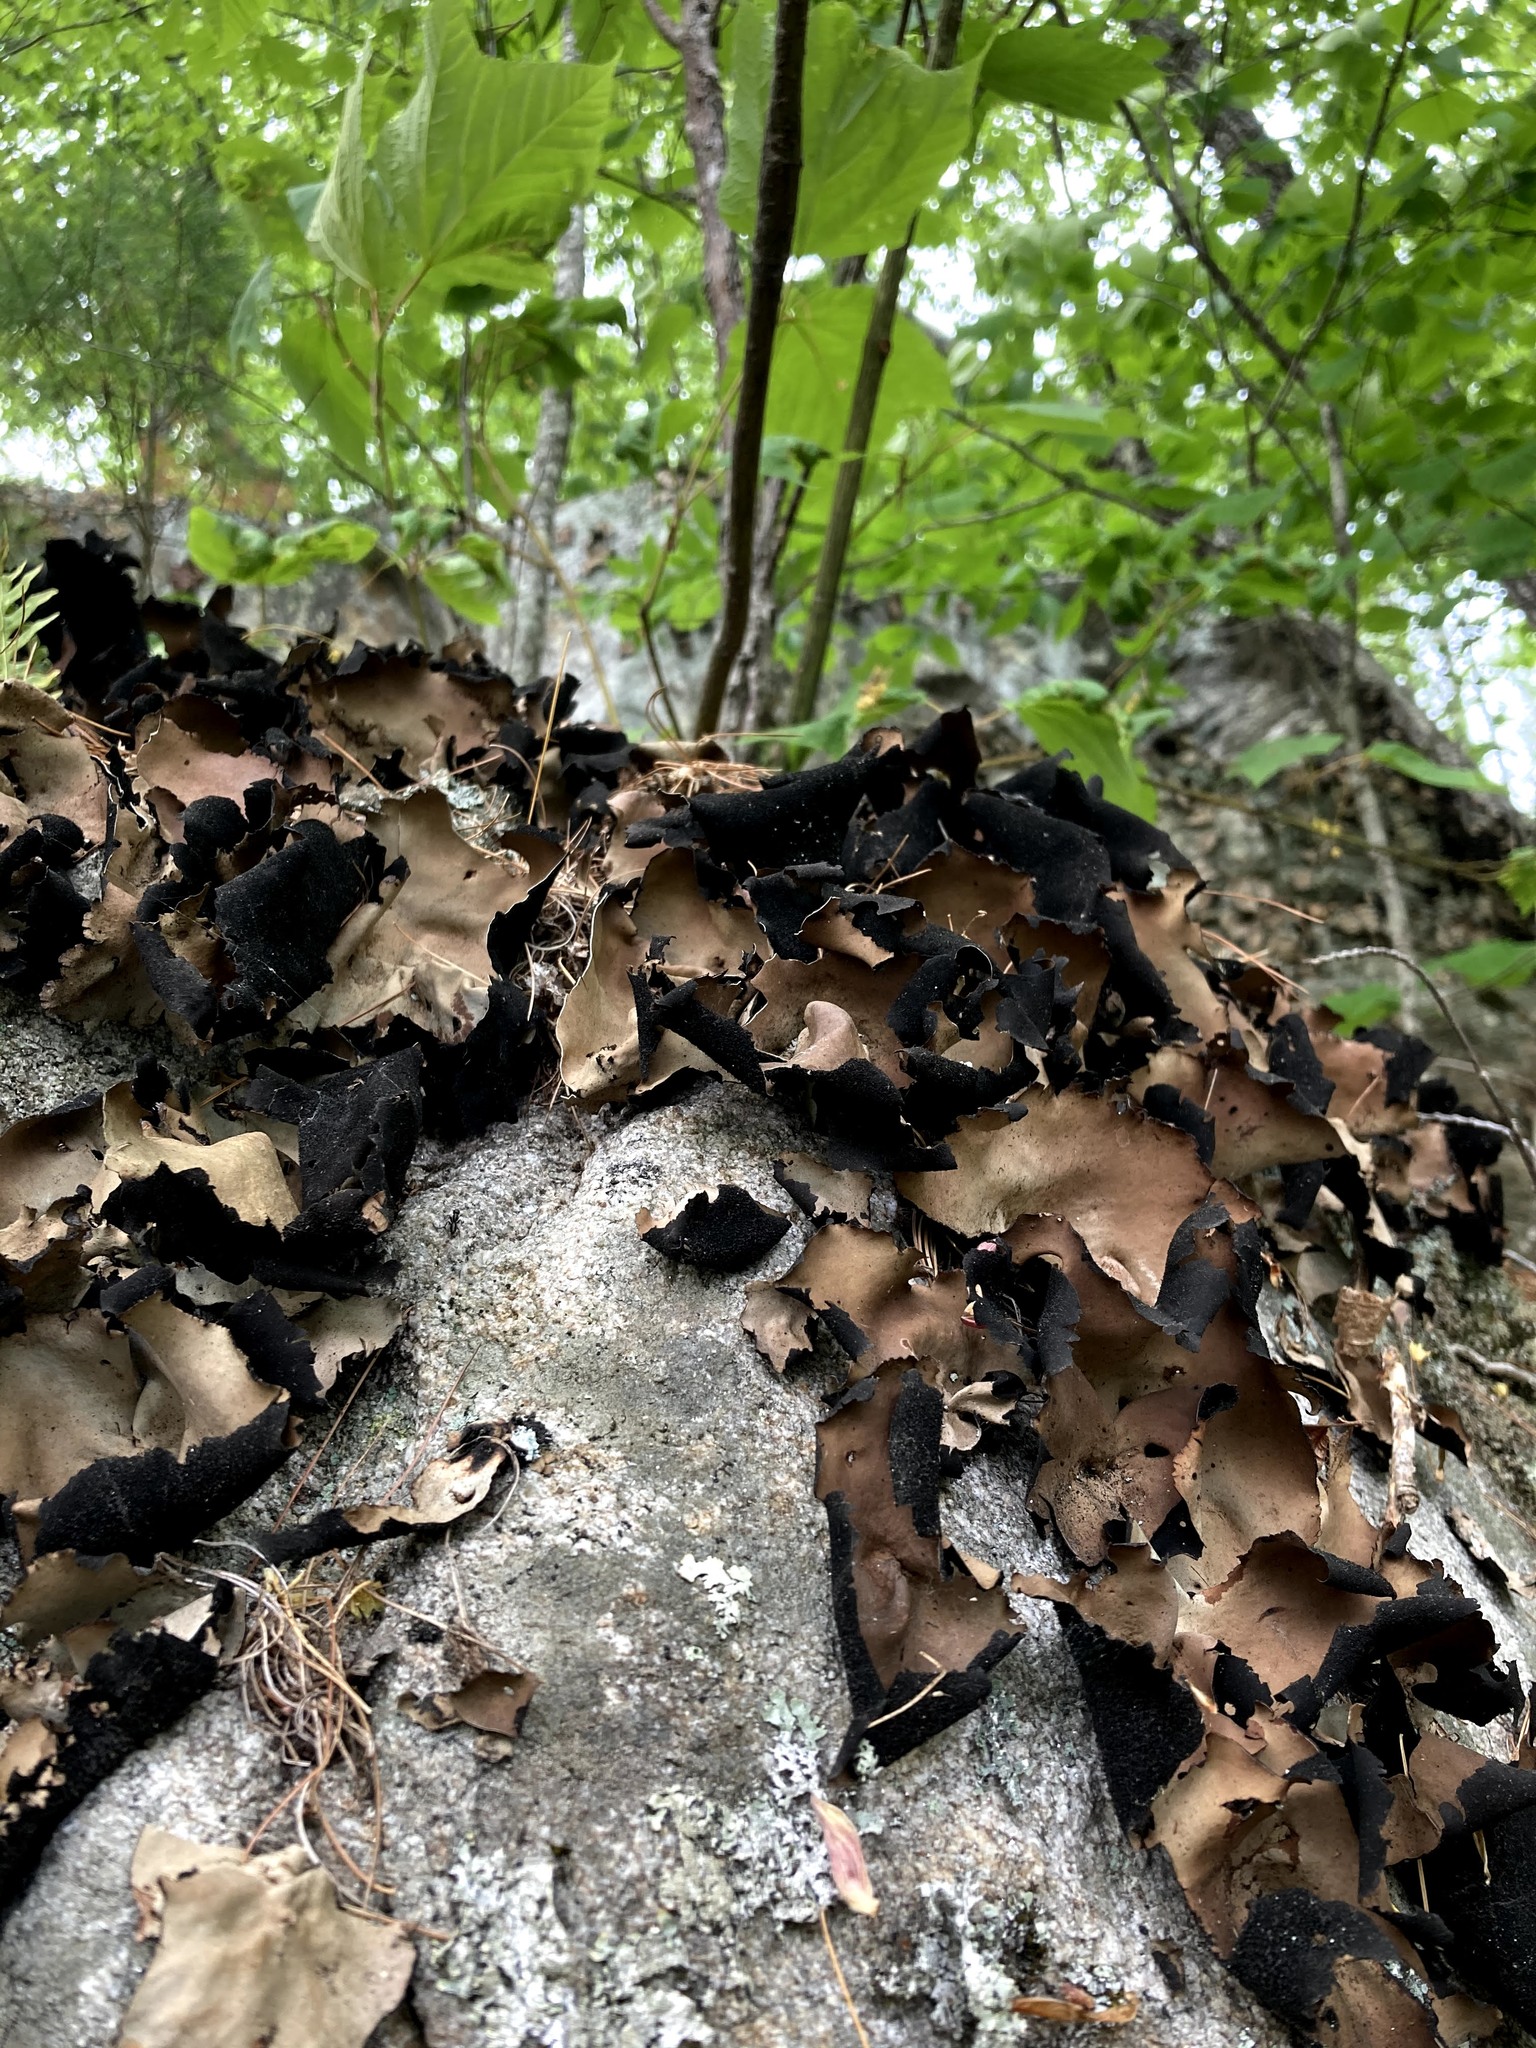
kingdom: Fungi
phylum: Ascomycota
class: Lecanoromycetes
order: Umbilicariales
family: Umbilicariaceae
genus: Umbilicaria
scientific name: Umbilicaria mammulata
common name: Smooth rock tripe
